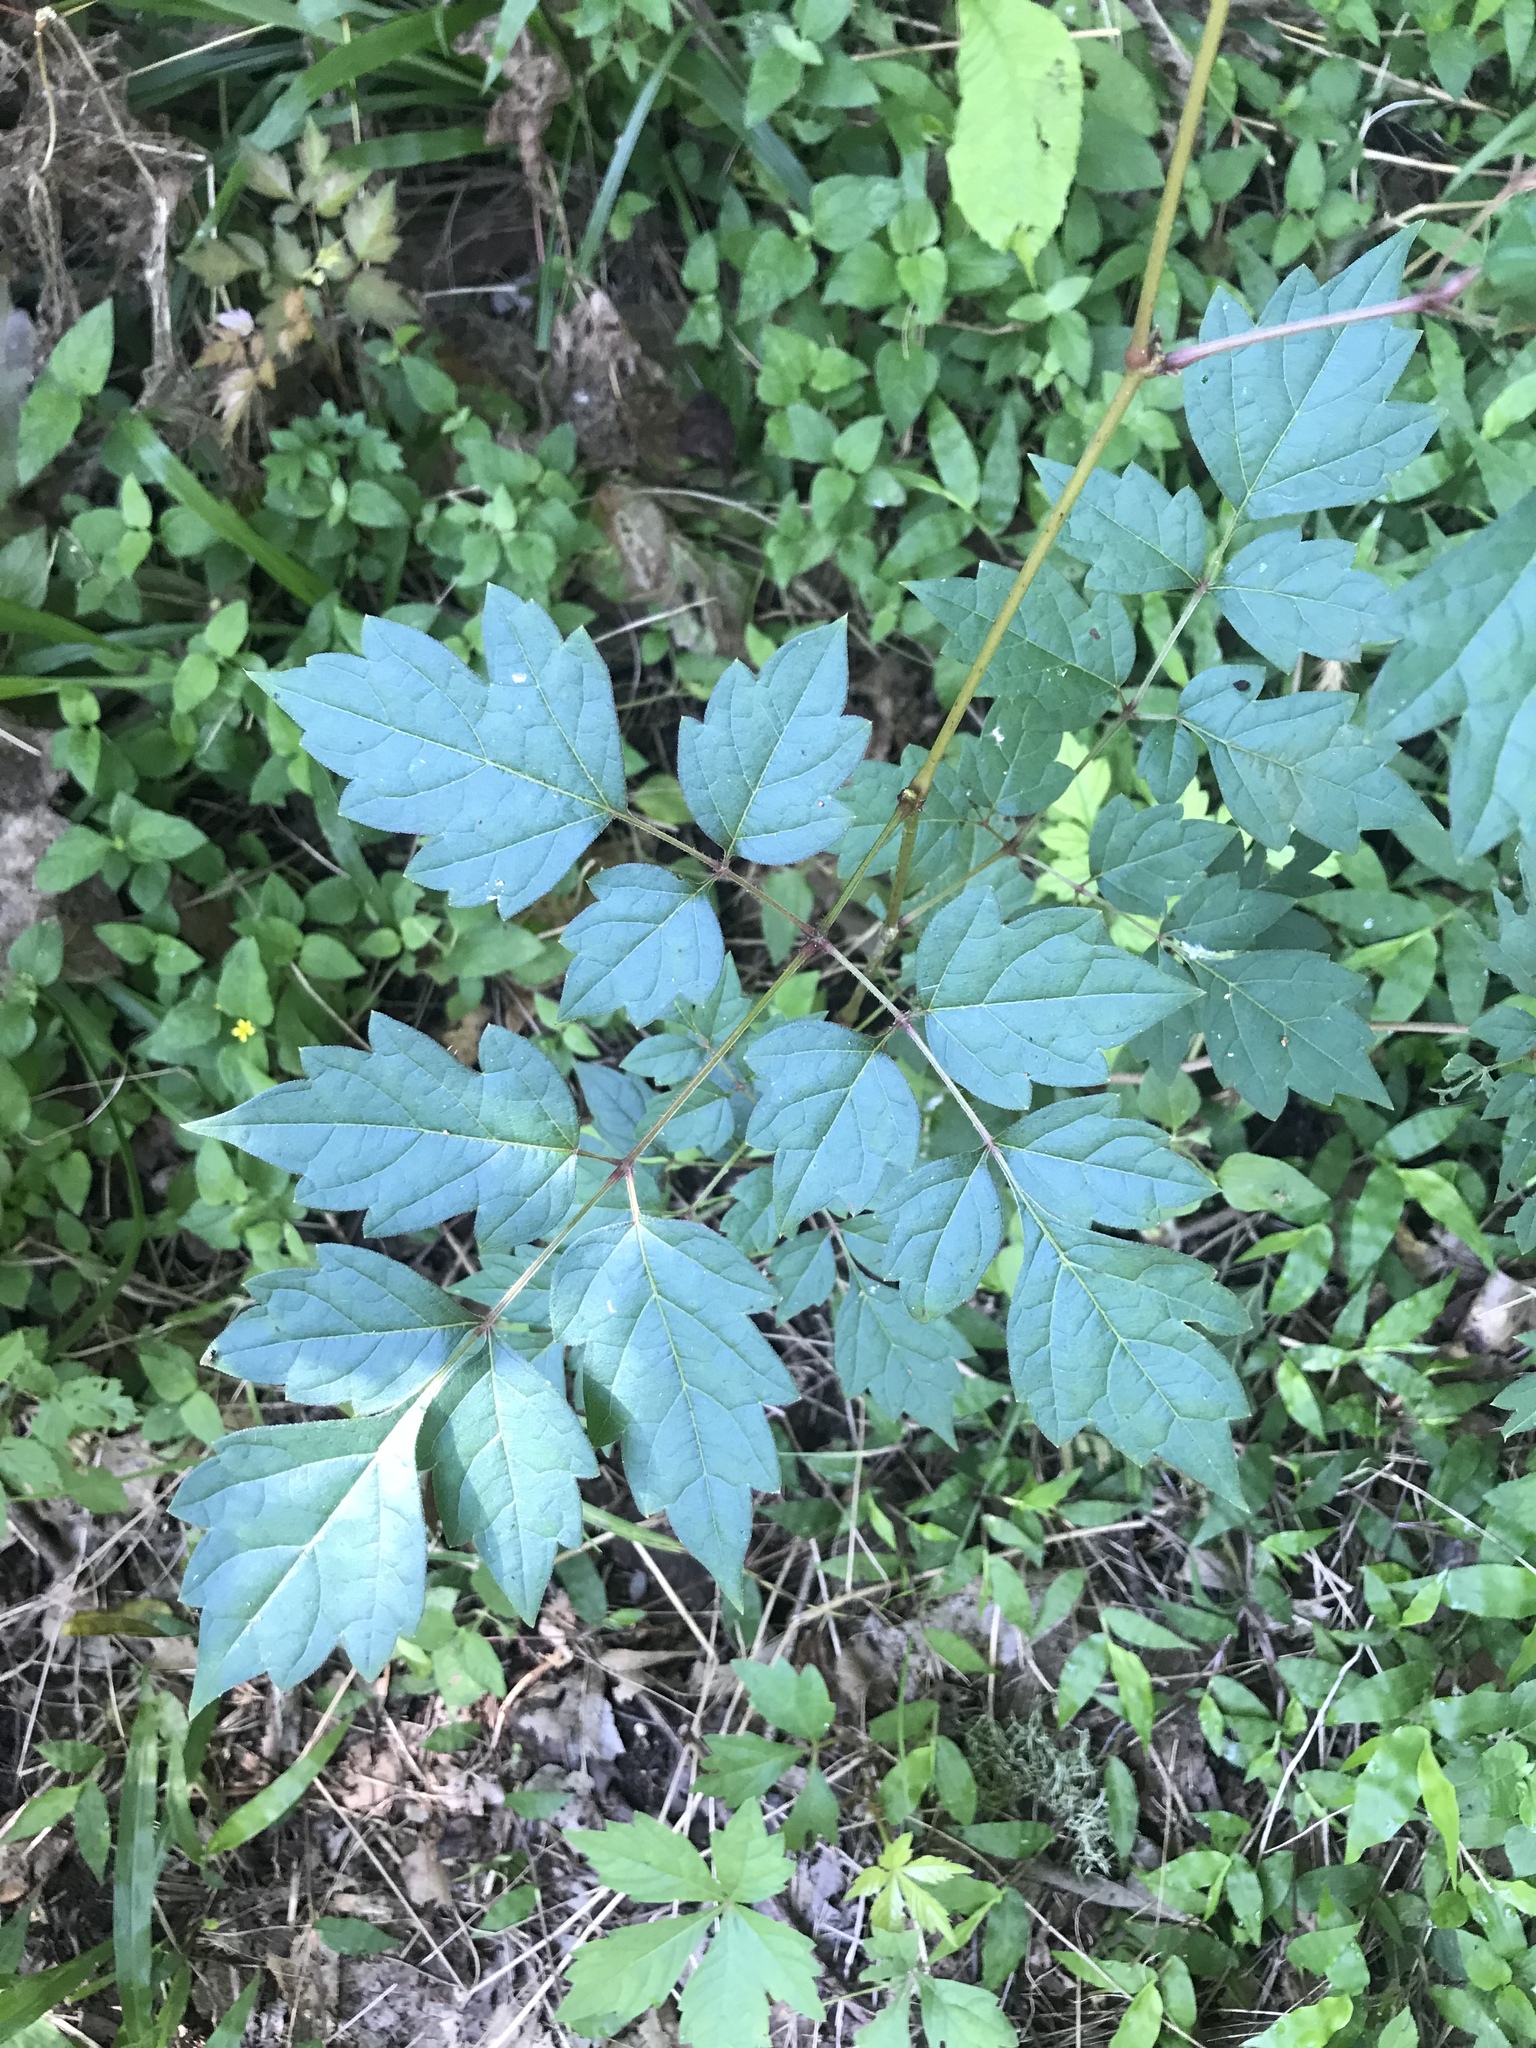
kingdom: Plantae
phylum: Tracheophyta
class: Magnoliopsida
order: Vitales
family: Vitaceae
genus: Nekemias
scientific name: Nekemias arborea
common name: Peppervine
